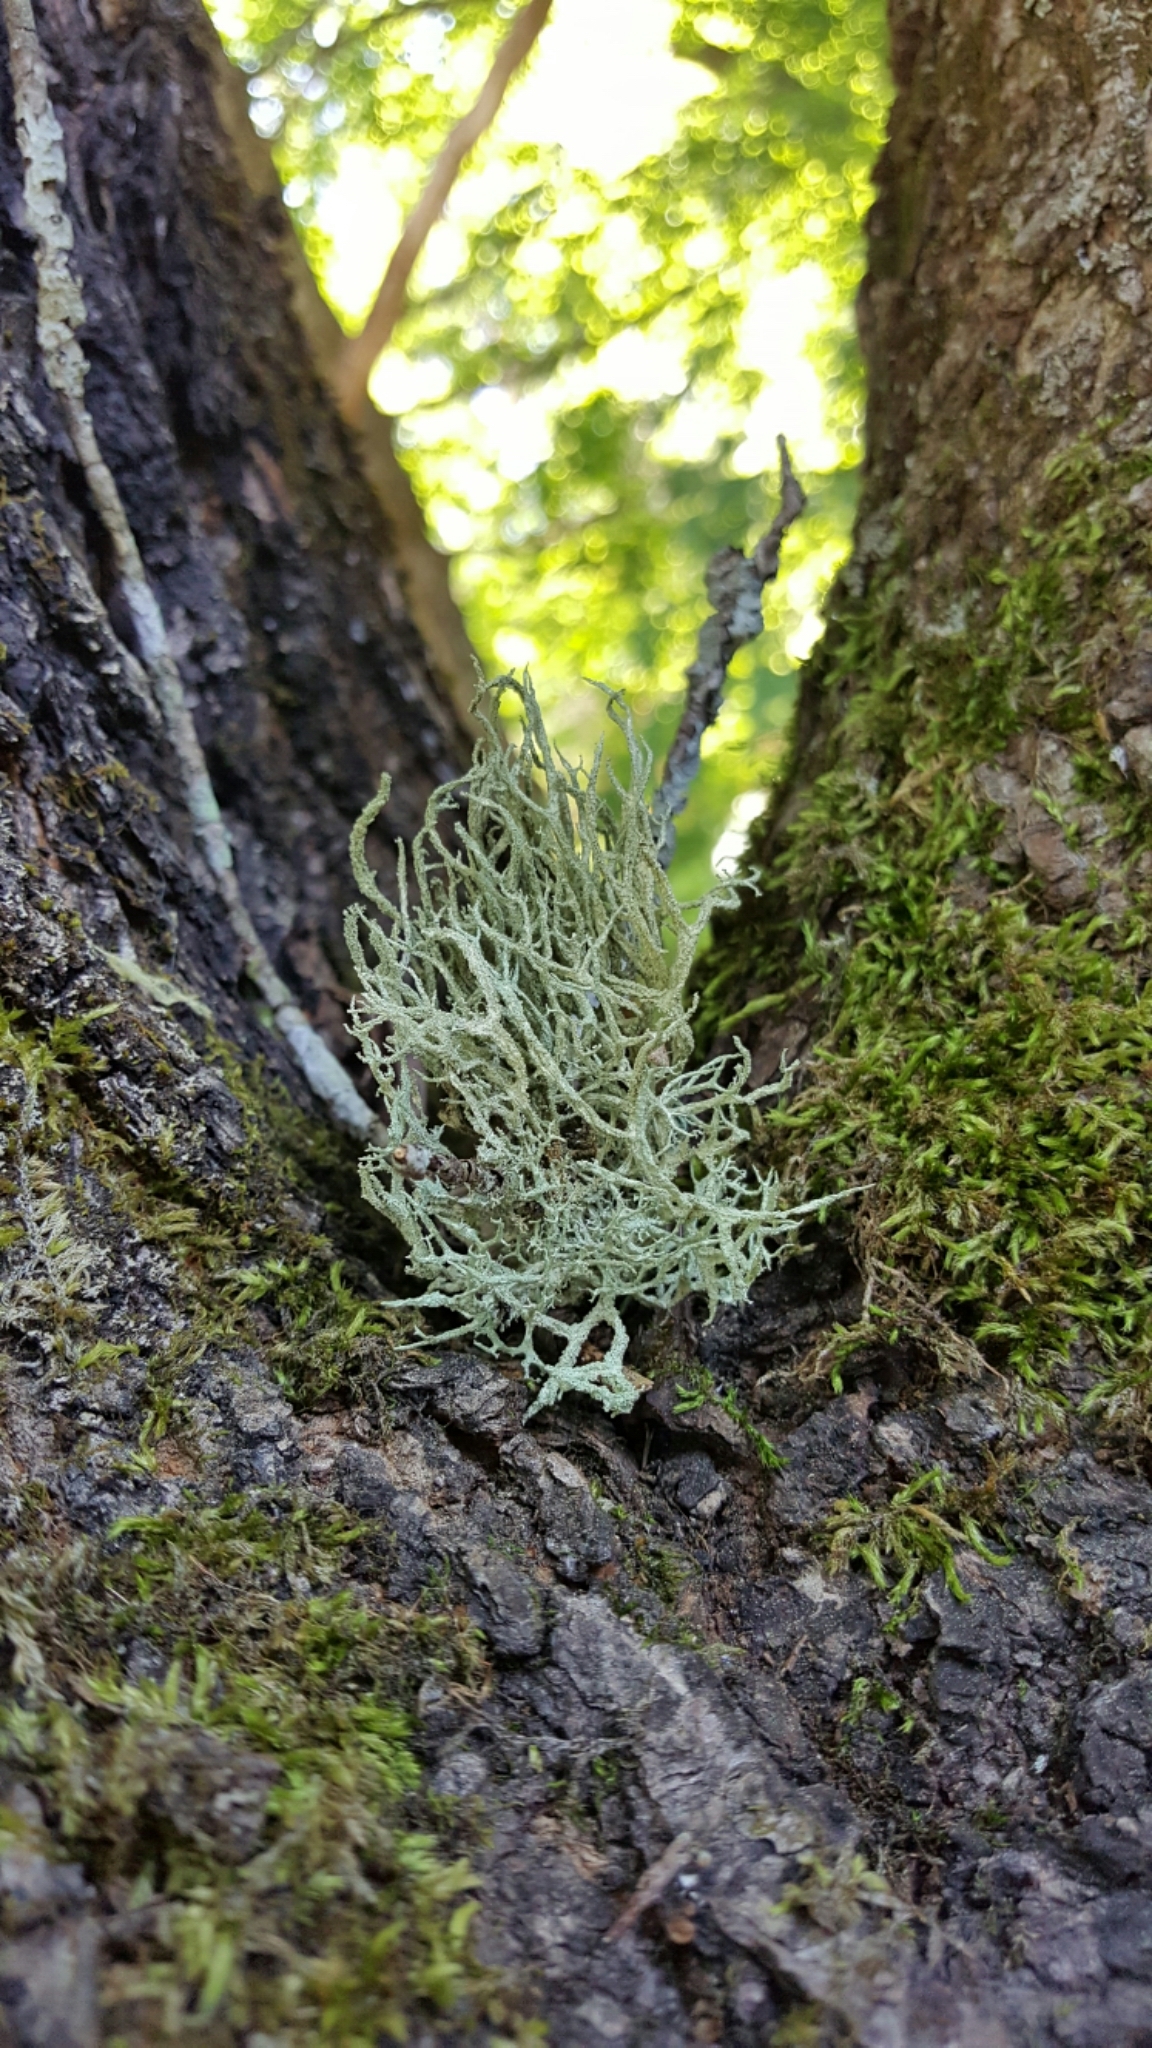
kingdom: Fungi
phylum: Ascomycota
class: Lecanoromycetes
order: Lecanorales
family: Parmeliaceae
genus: Evernia
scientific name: Evernia mesomorpha
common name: Boreal oak moss lichen
